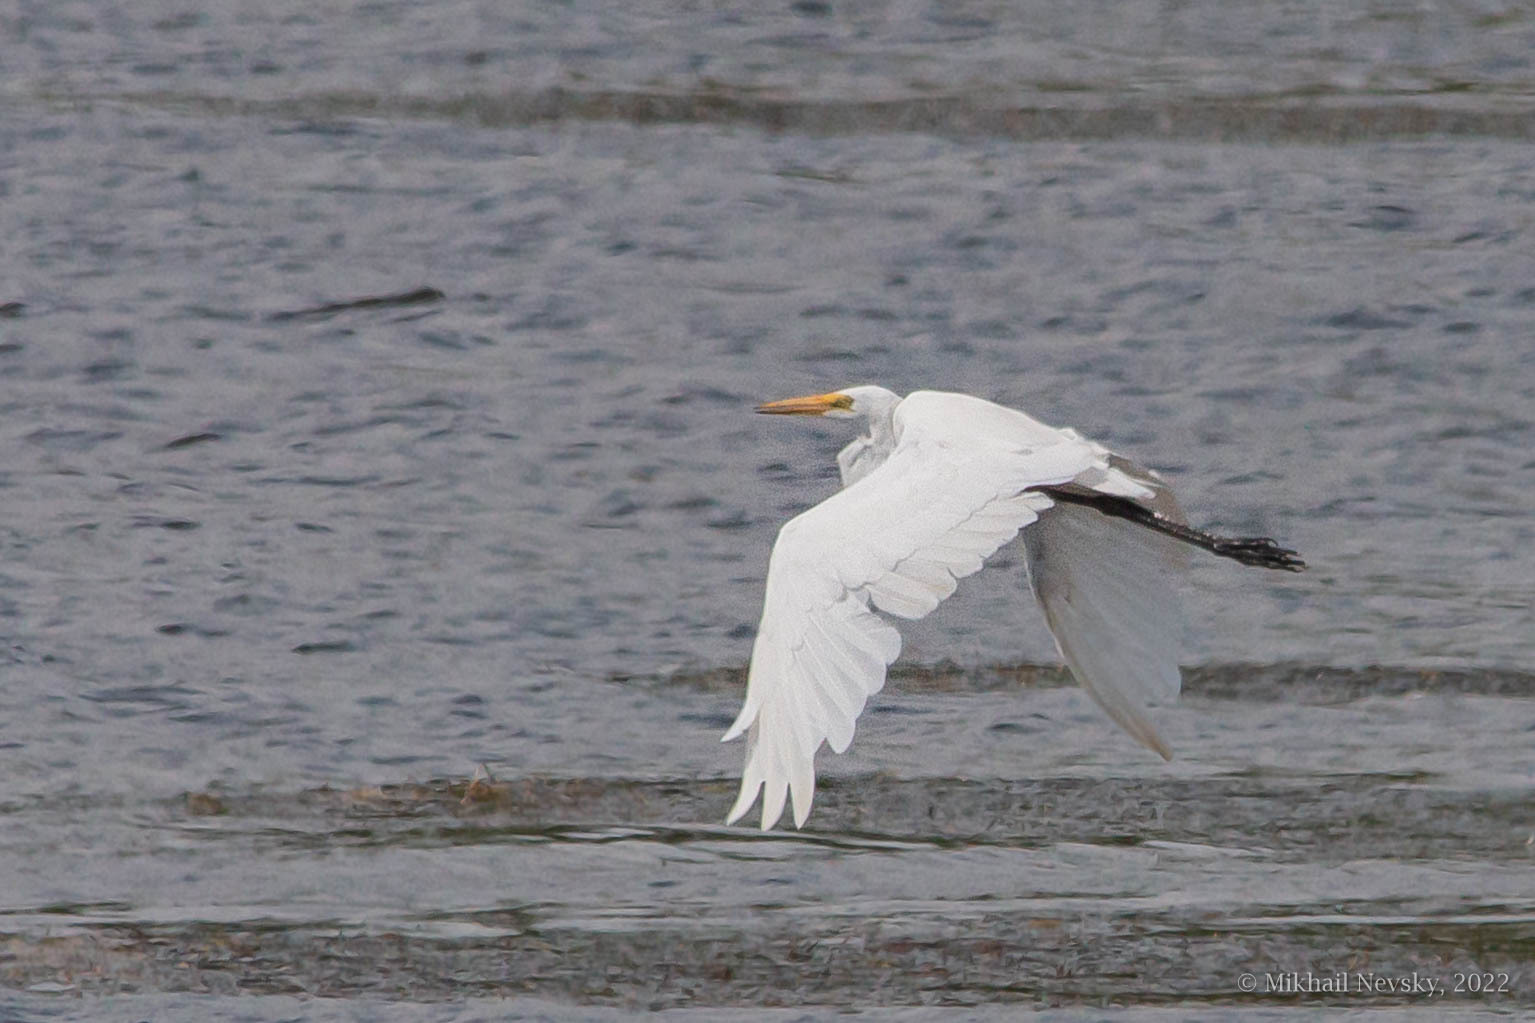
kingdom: Animalia
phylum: Chordata
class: Aves
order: Pelecaniformes
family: Ardeidae
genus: Ardea
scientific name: Ardea modesta
